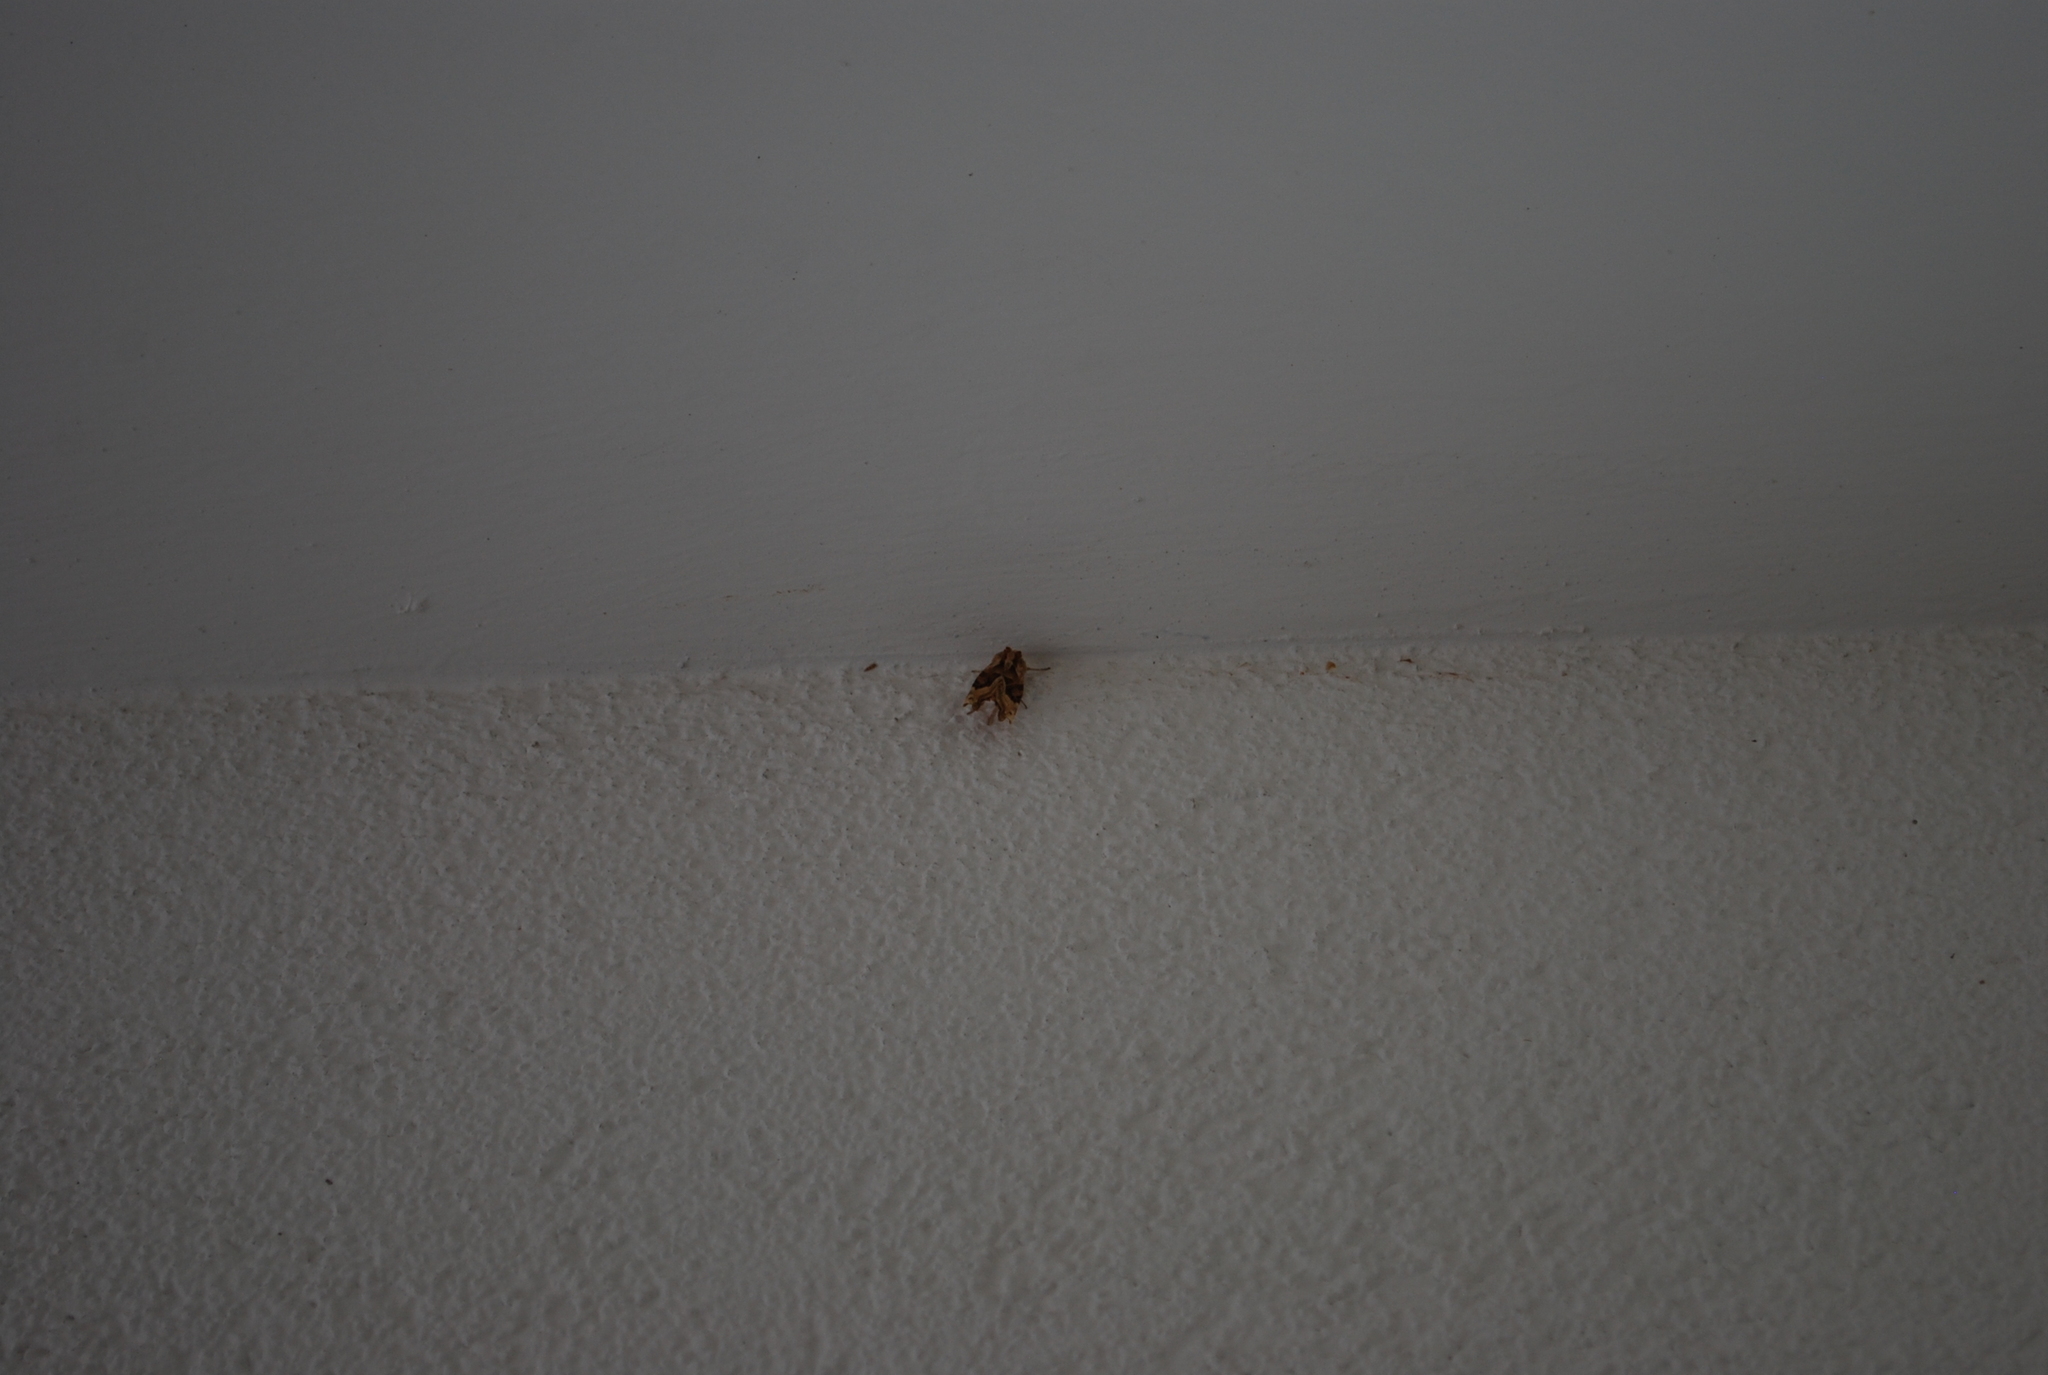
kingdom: Animalia
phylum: Arthropoda
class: Insecta
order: Lepidoptera
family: Noctuidae
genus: Phlogophora
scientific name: Phlogophora meticulosa
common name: Angle shades
